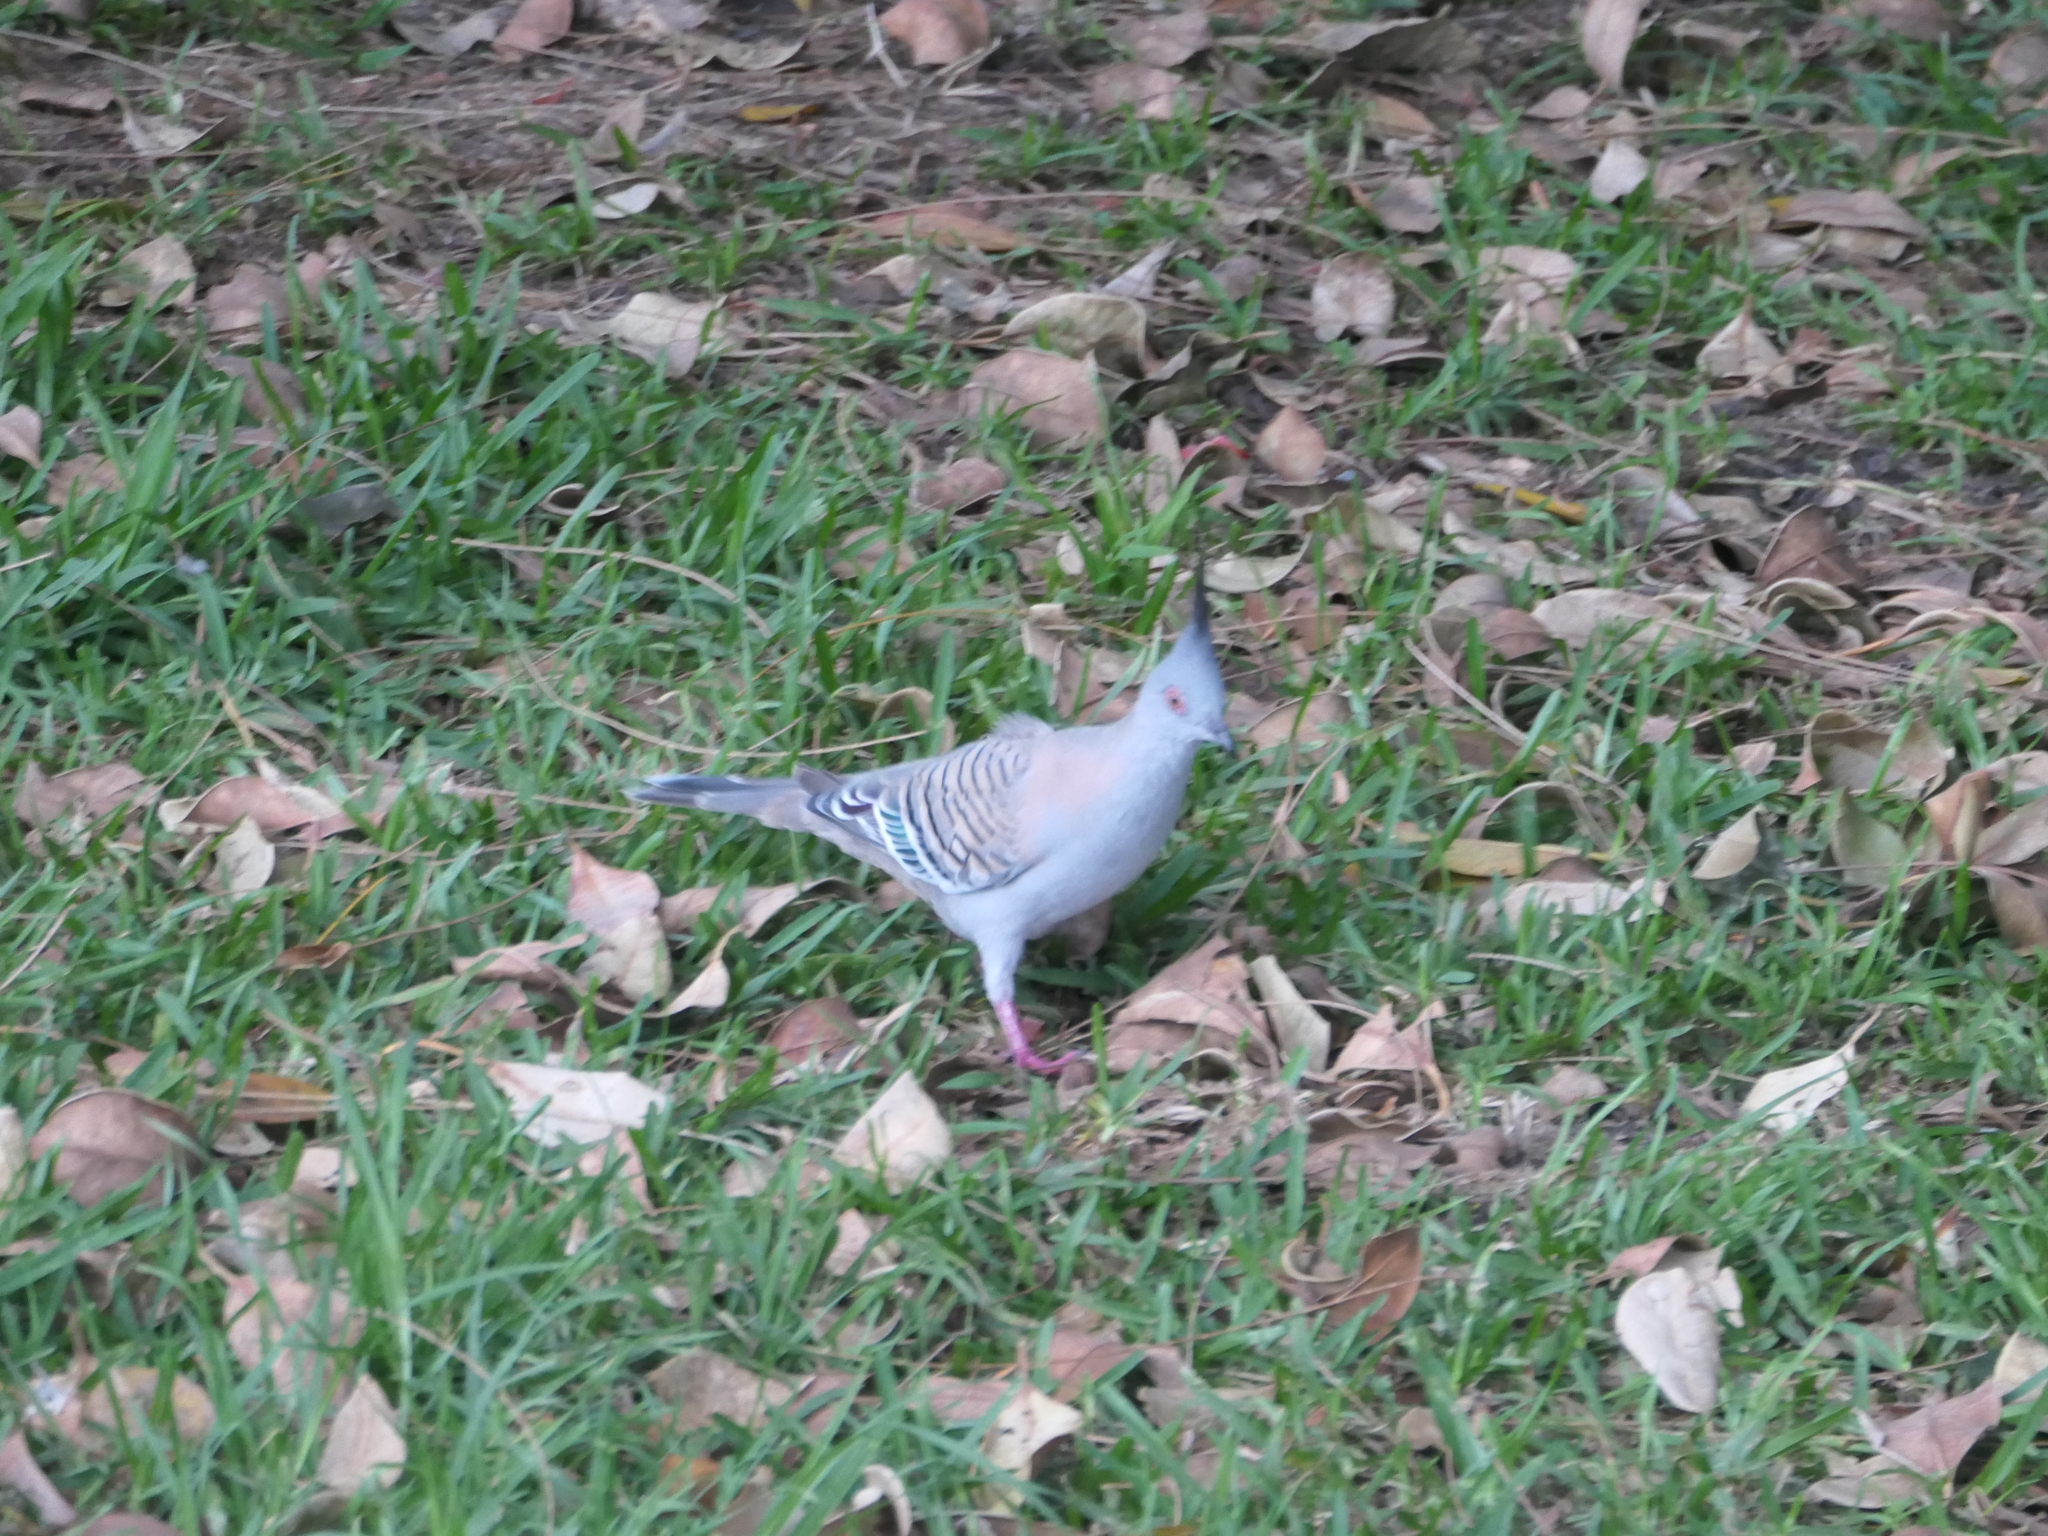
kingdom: Animalia
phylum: Chordata
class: Aves
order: Columbiformes
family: Columbidae
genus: Ocyphaps
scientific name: Ocyphaps lophotes
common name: Crested pigeon
